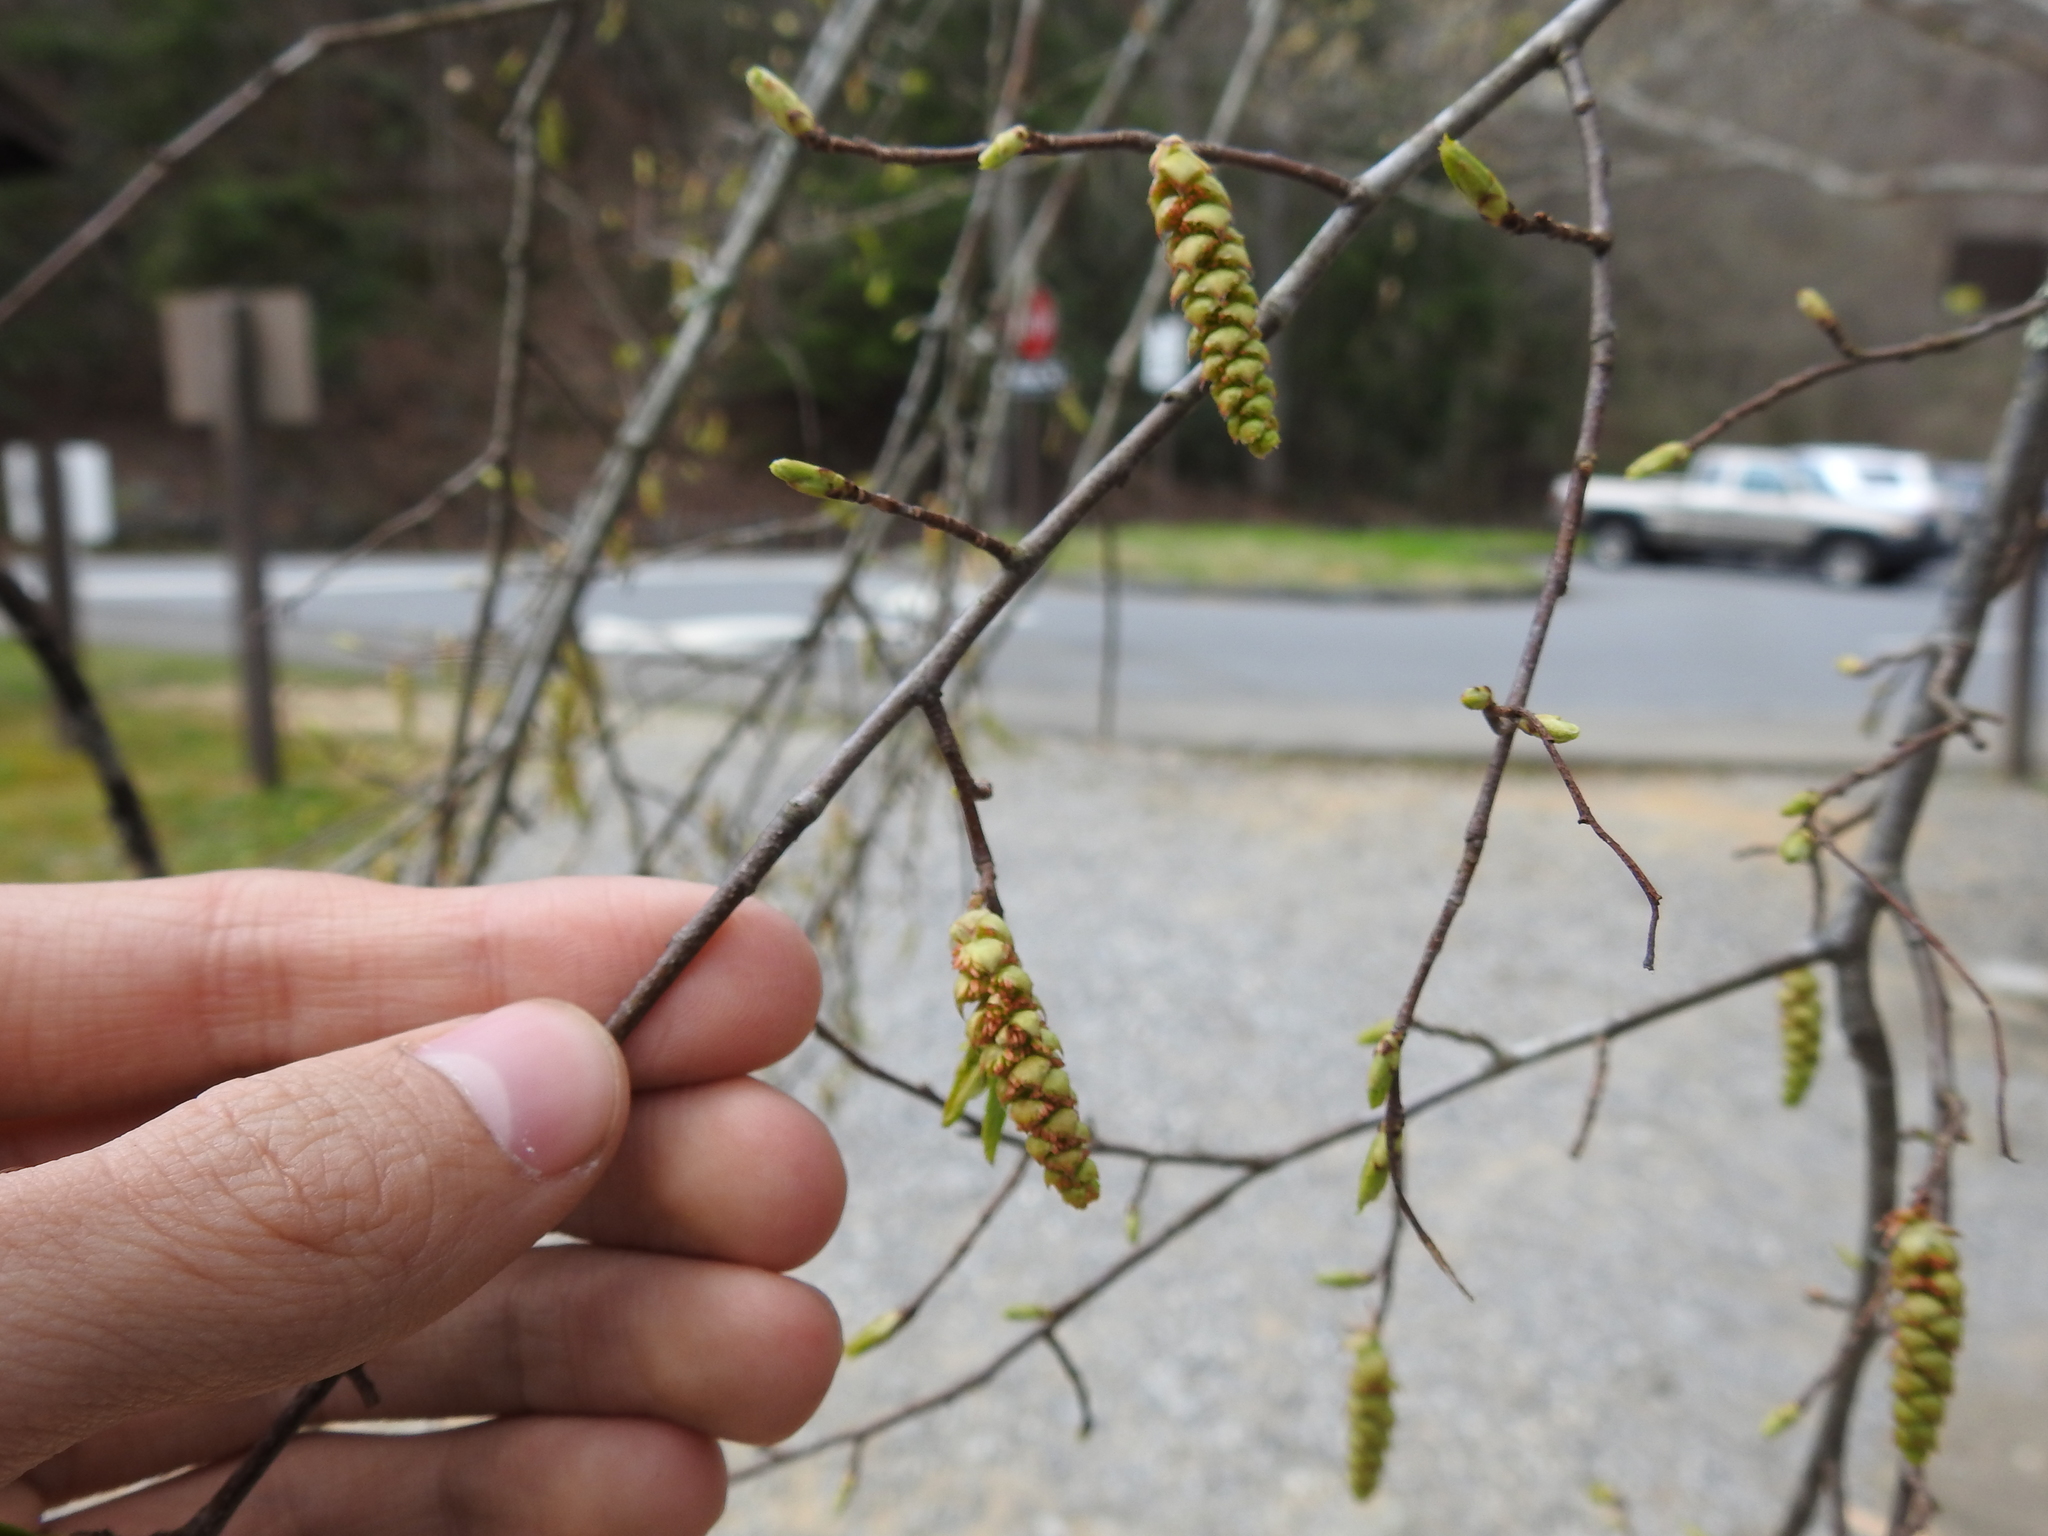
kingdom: Plantae
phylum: Tracheophyta
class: Magnoliopsida
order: Fagales
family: Betulaceae
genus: Carpinus
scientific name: Carpinus caroliniana
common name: American hornbeam
